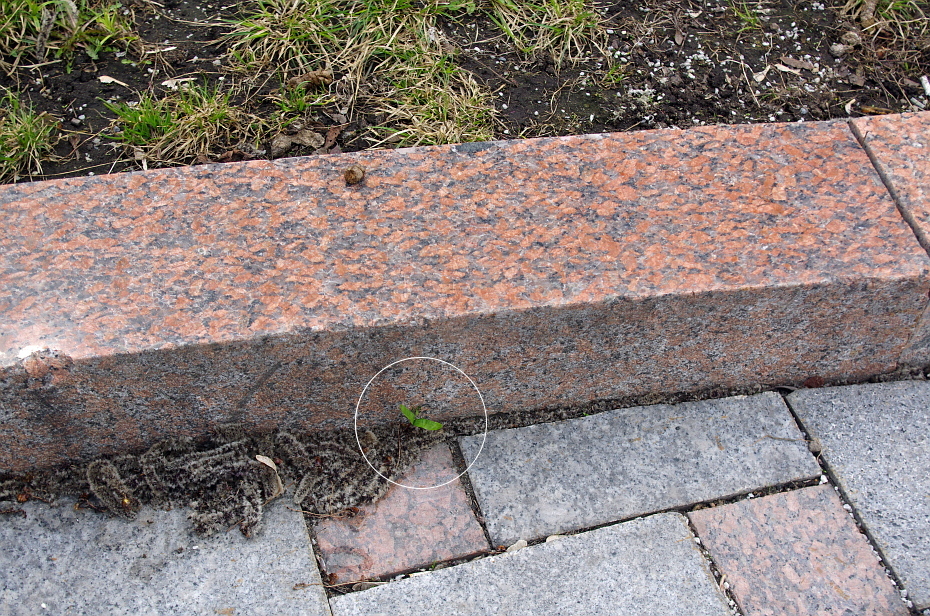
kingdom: Plantae
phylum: Tracheophyta
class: Magnoliopsida
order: Sapindales
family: Sapindaceae
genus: Acer
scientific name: Acer platanoides
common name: Norway maple
